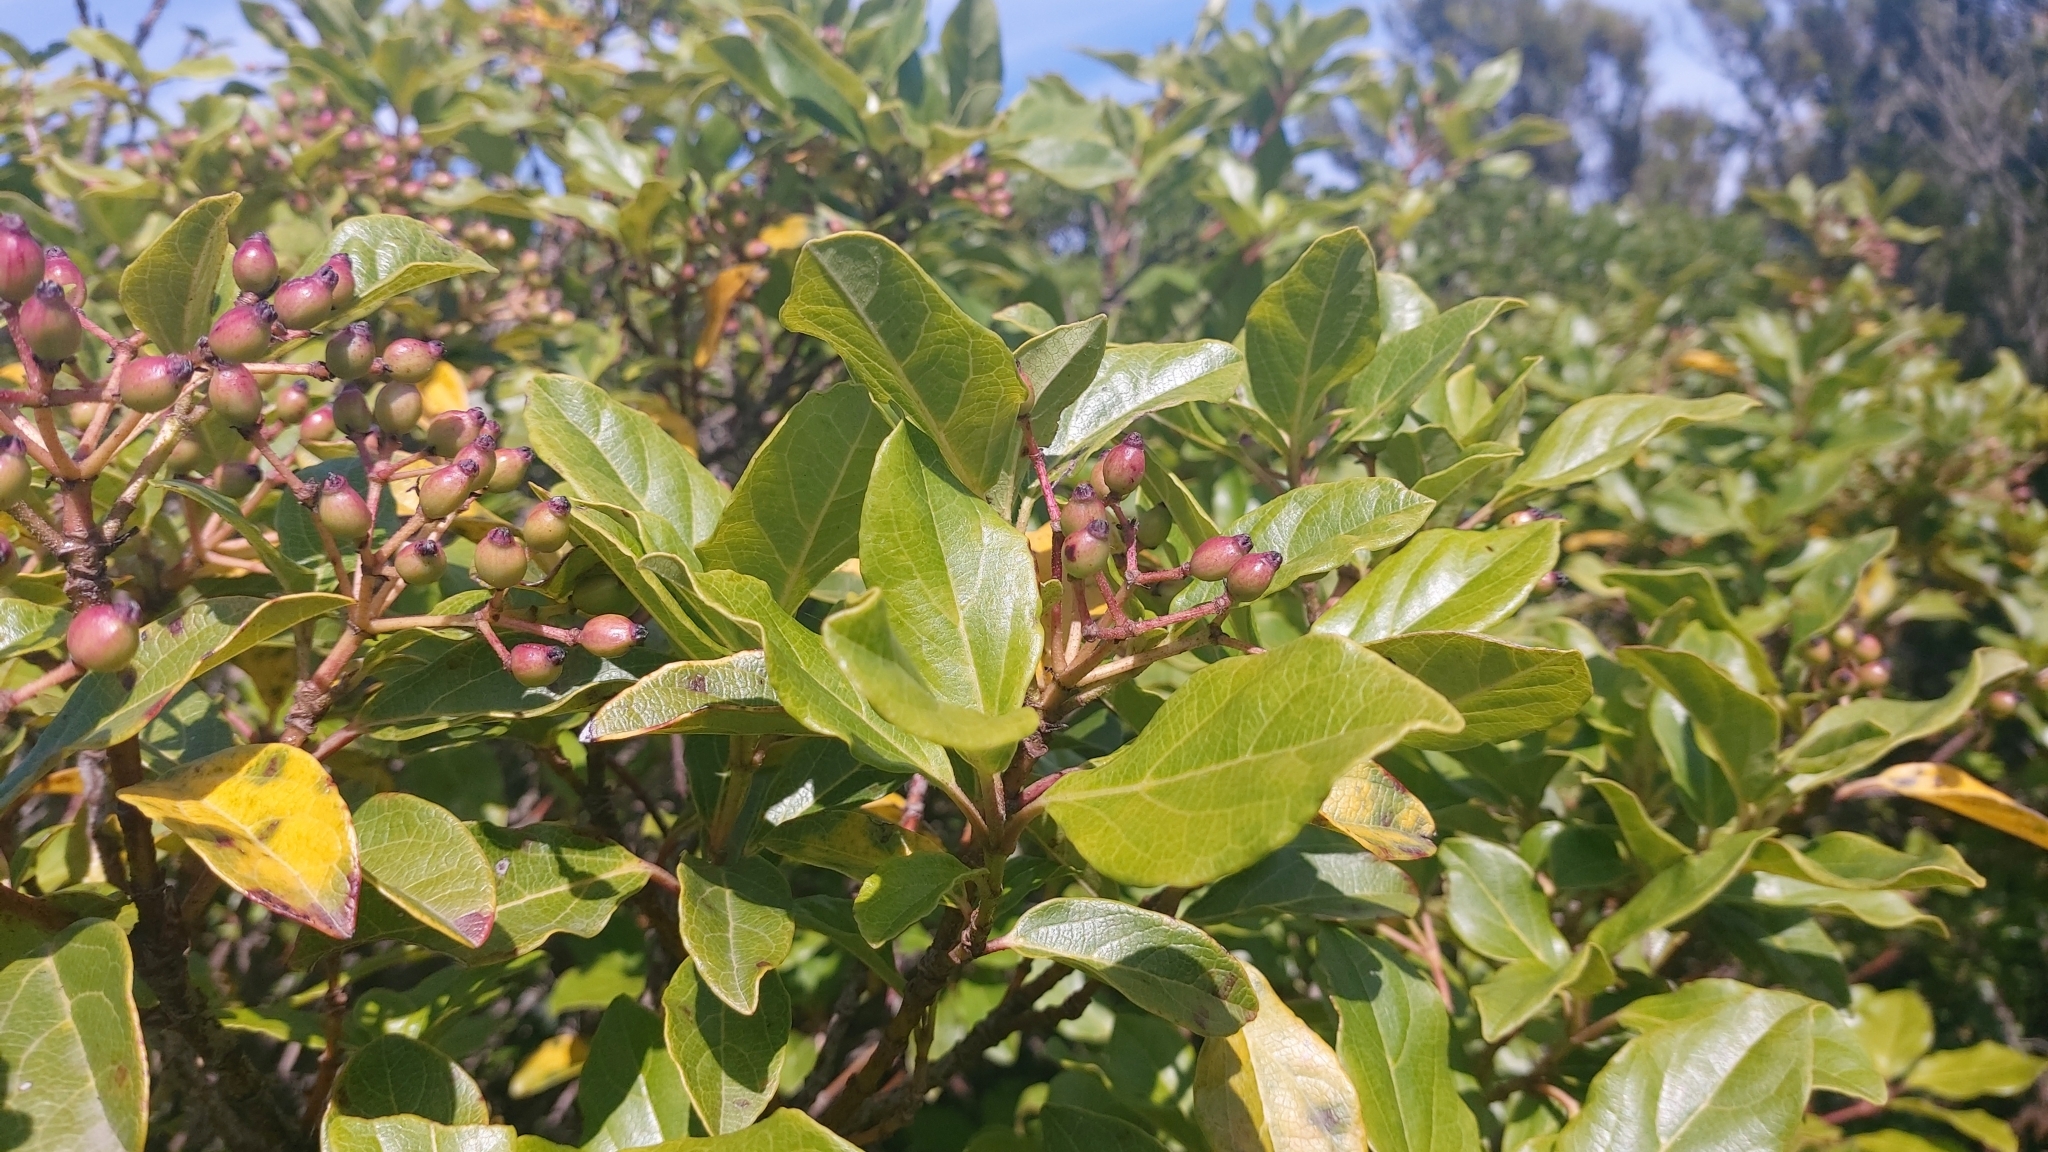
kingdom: Plantae
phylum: Tracheophyta
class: Magnoliopsida
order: Dipsacales
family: Viburnaceae
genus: Viburnum
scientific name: Viburnum tinus
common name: Laurustinus
